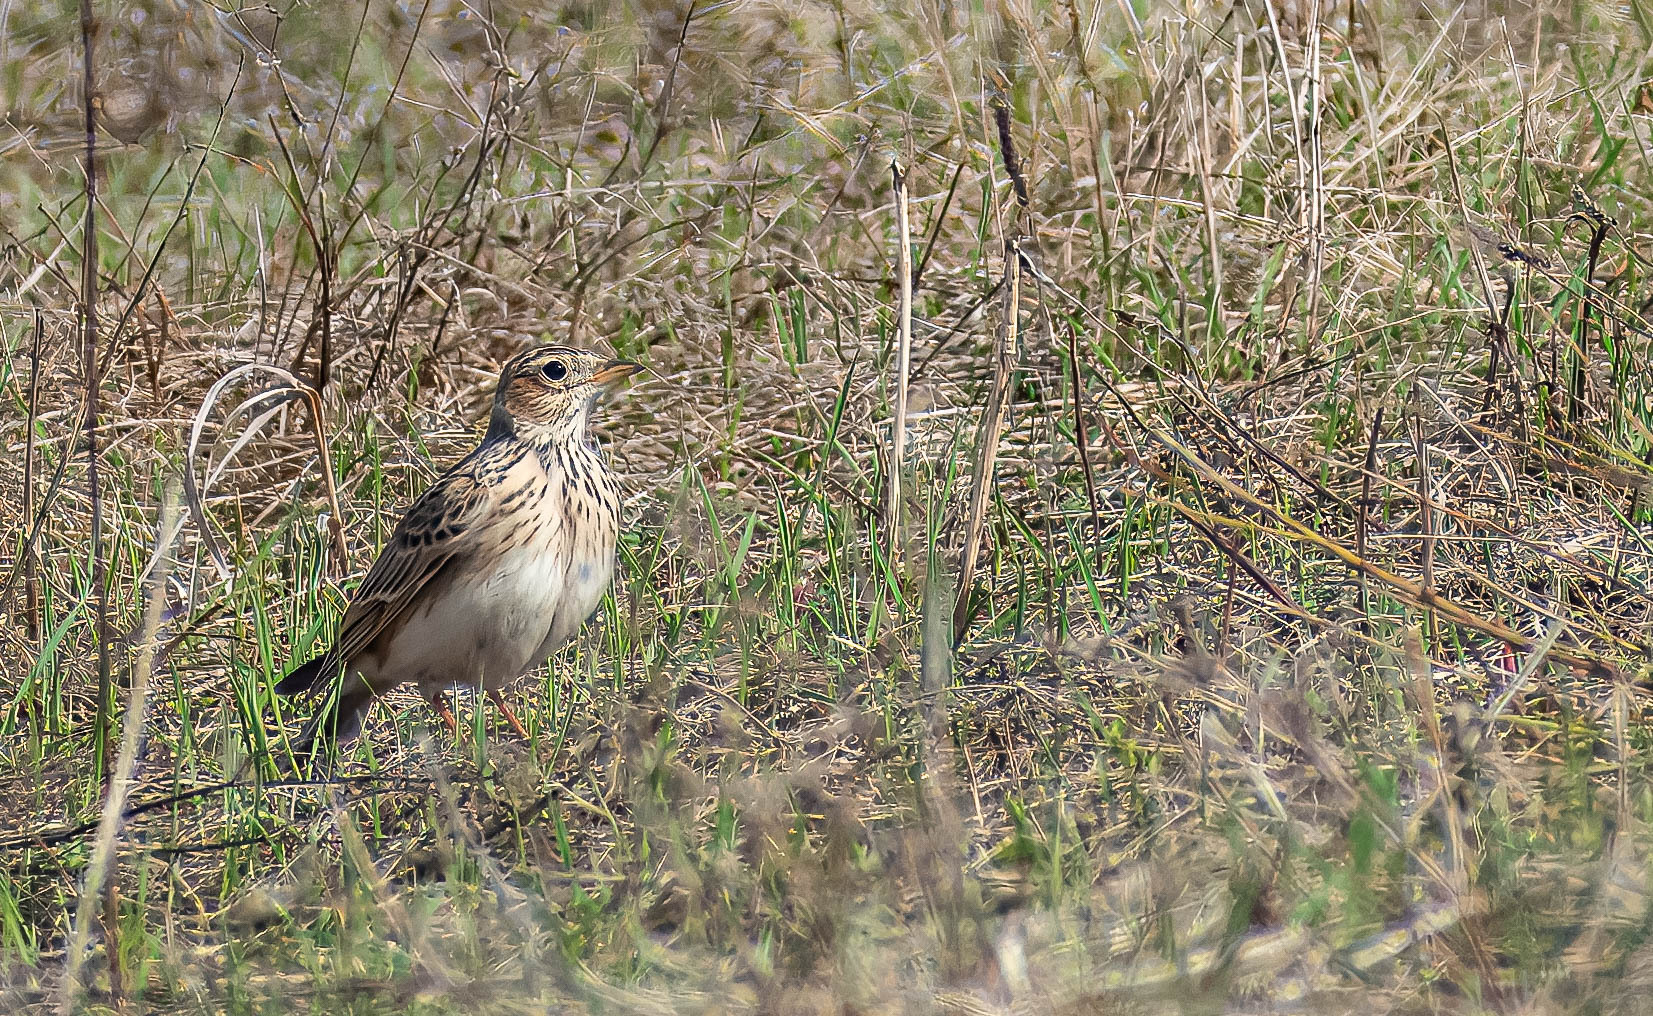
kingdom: Animalia
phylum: Chordata
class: Aves
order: Passeriformes
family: Alaudidae
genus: Alauda
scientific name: Alauda arvensis
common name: Eurasian skylark
